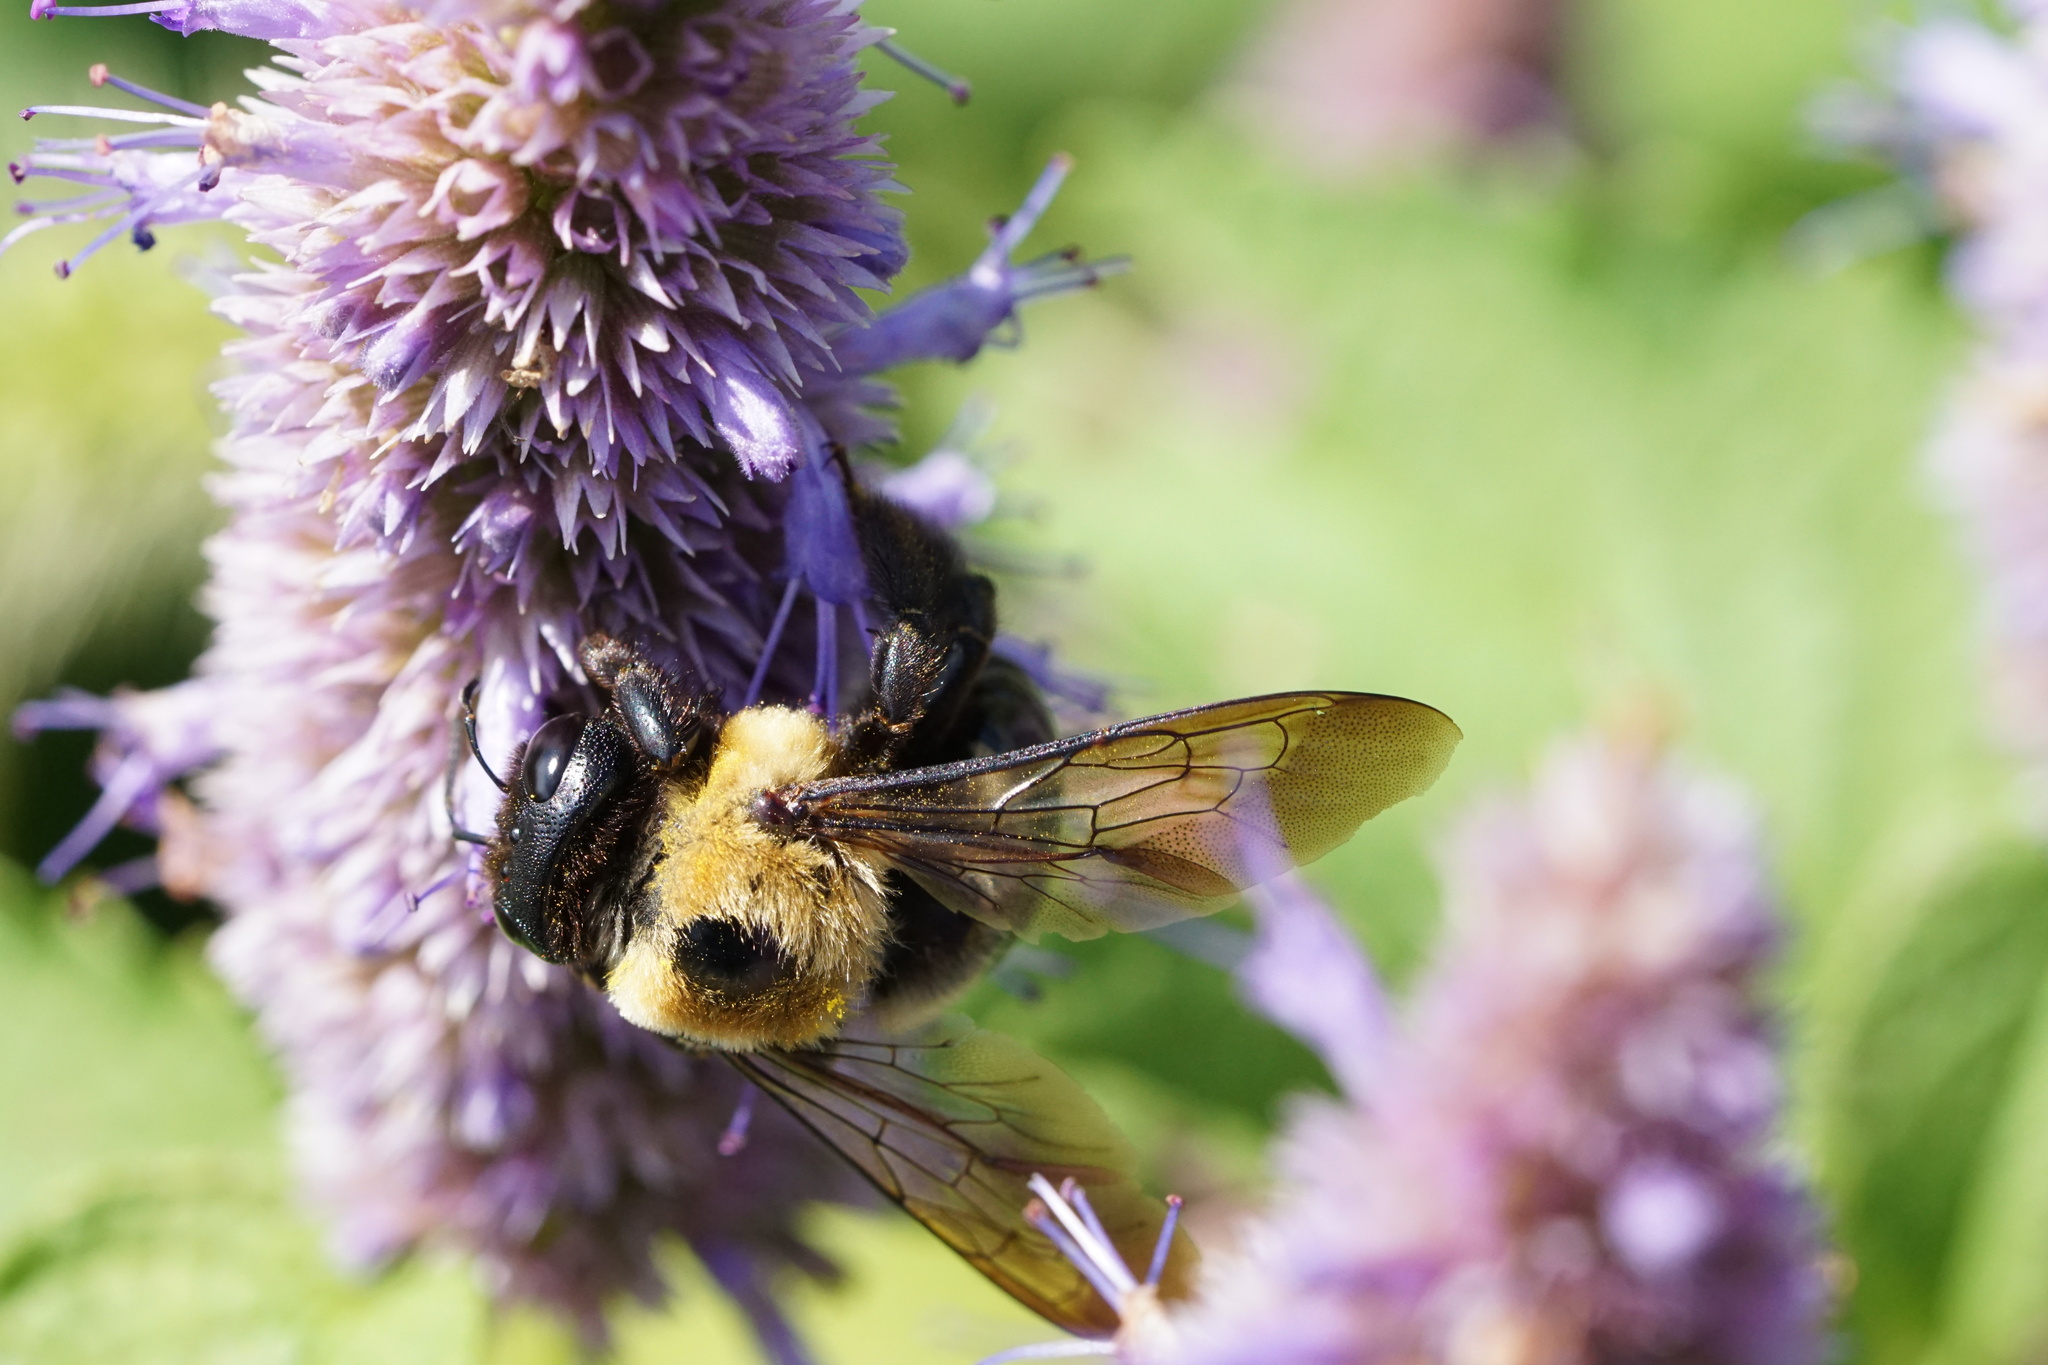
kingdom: Animalia
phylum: Arthropoda
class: Insecta
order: Hymenoptera
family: Apidae
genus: Xylocopa
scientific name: Xylocopa virginica
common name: Carpenter bee
